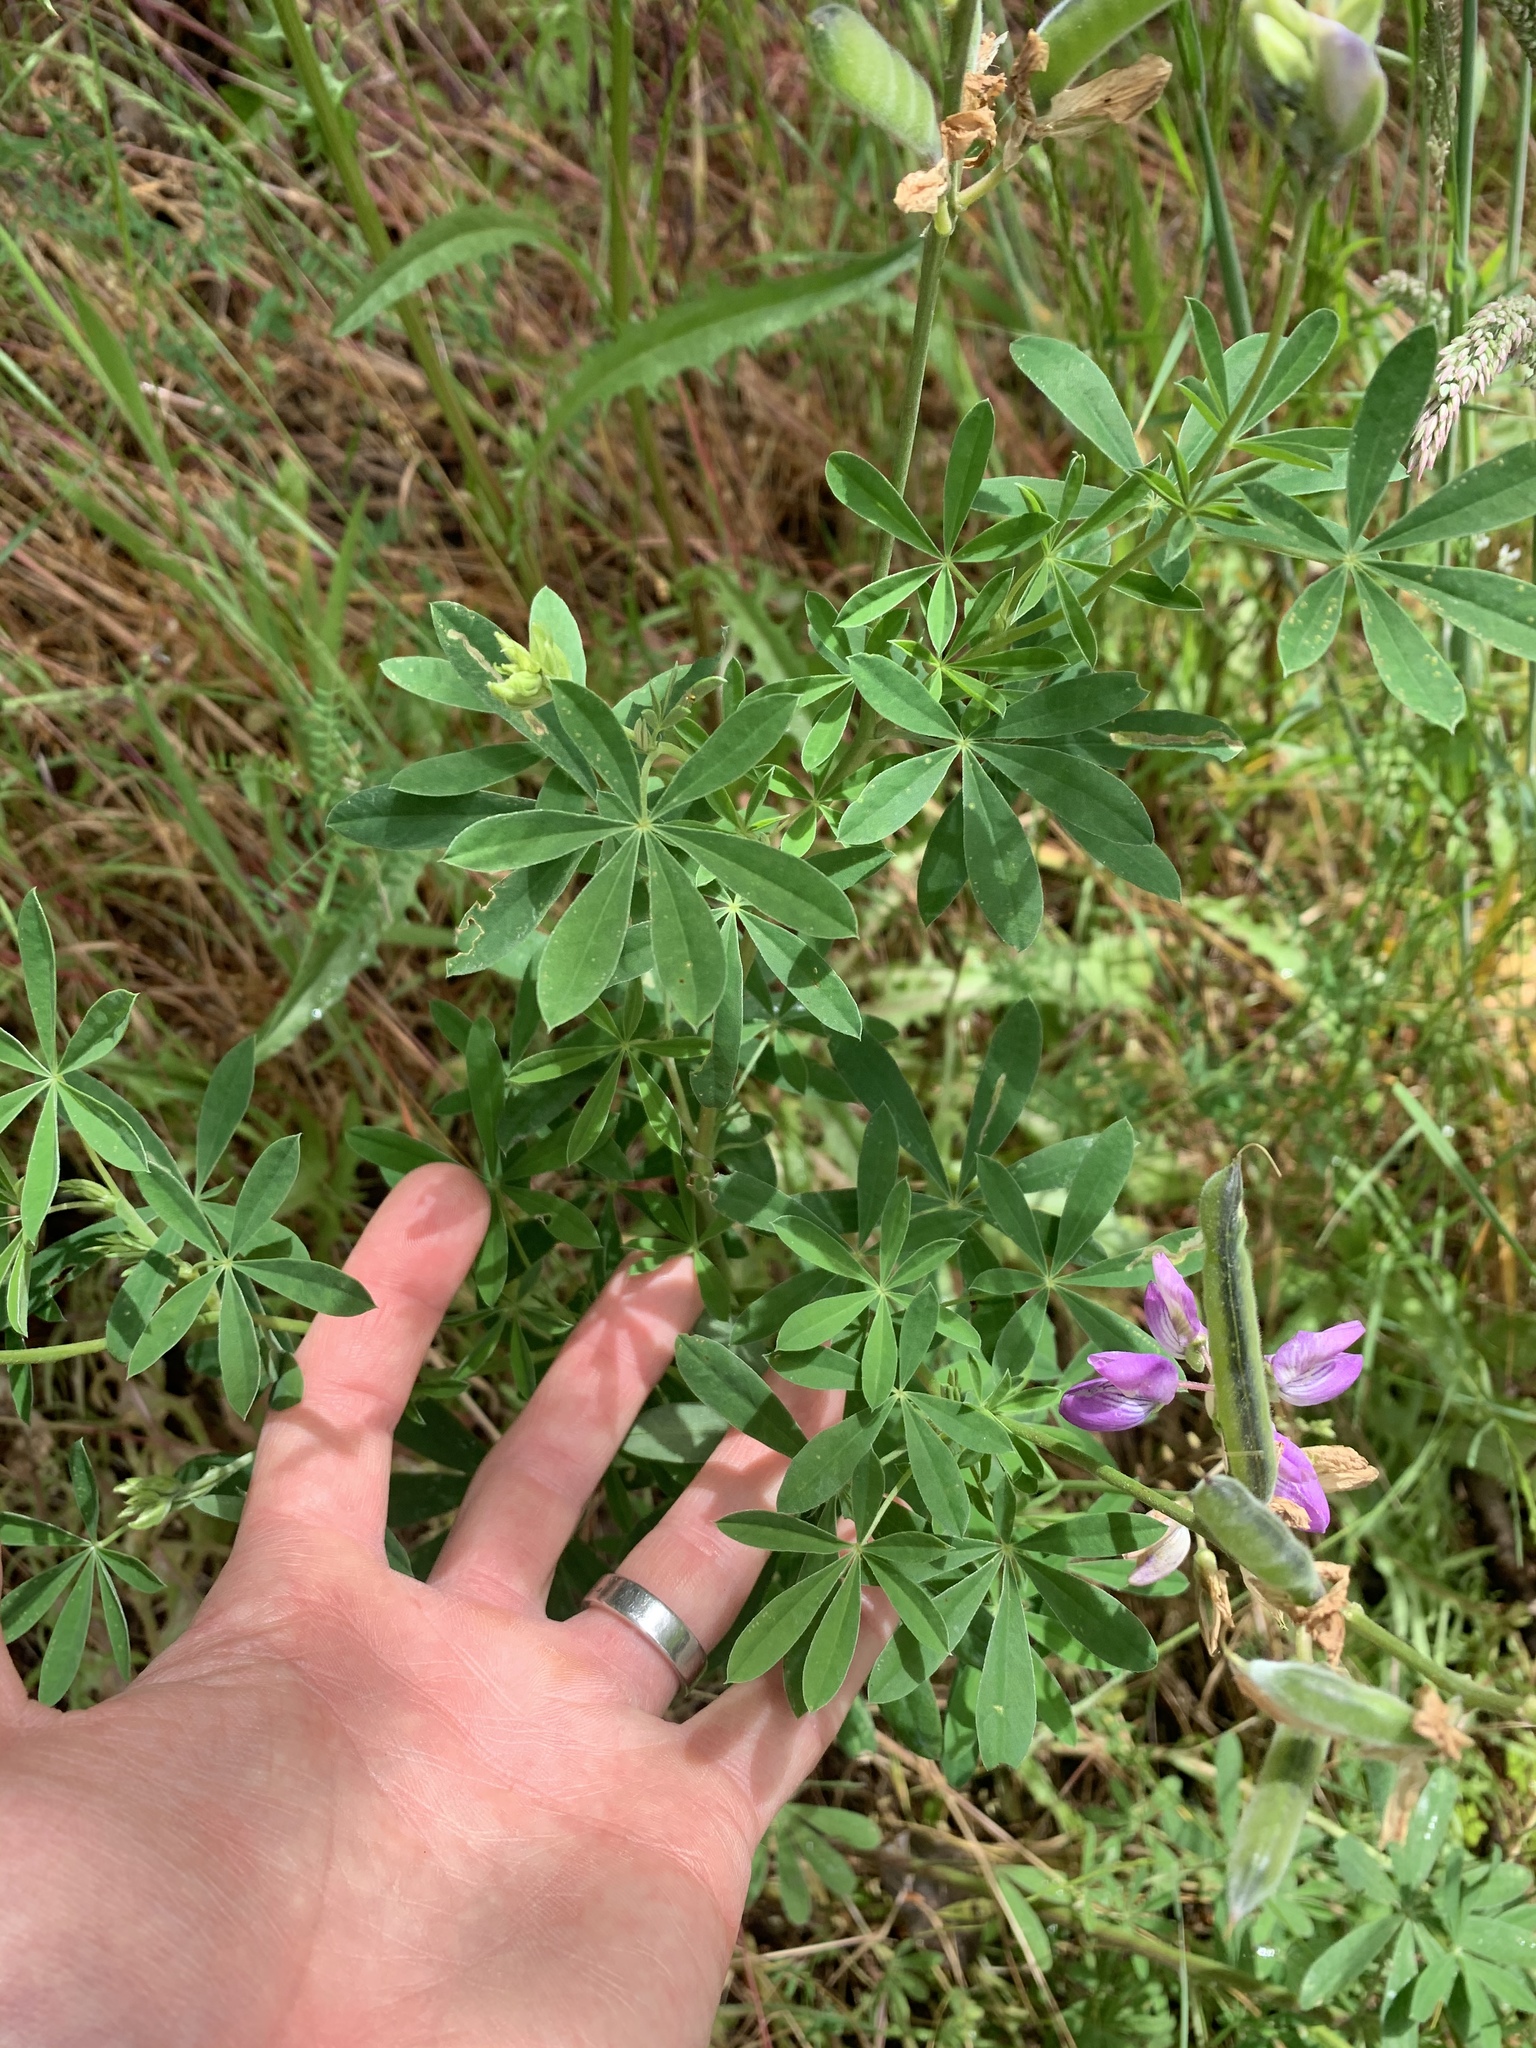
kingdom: Plantae
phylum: Tracheophyta
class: Magnoliopsida
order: Fabales
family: Fabaceae
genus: Lupinus
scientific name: Lupinus rivularis
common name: Riverbank lupine
